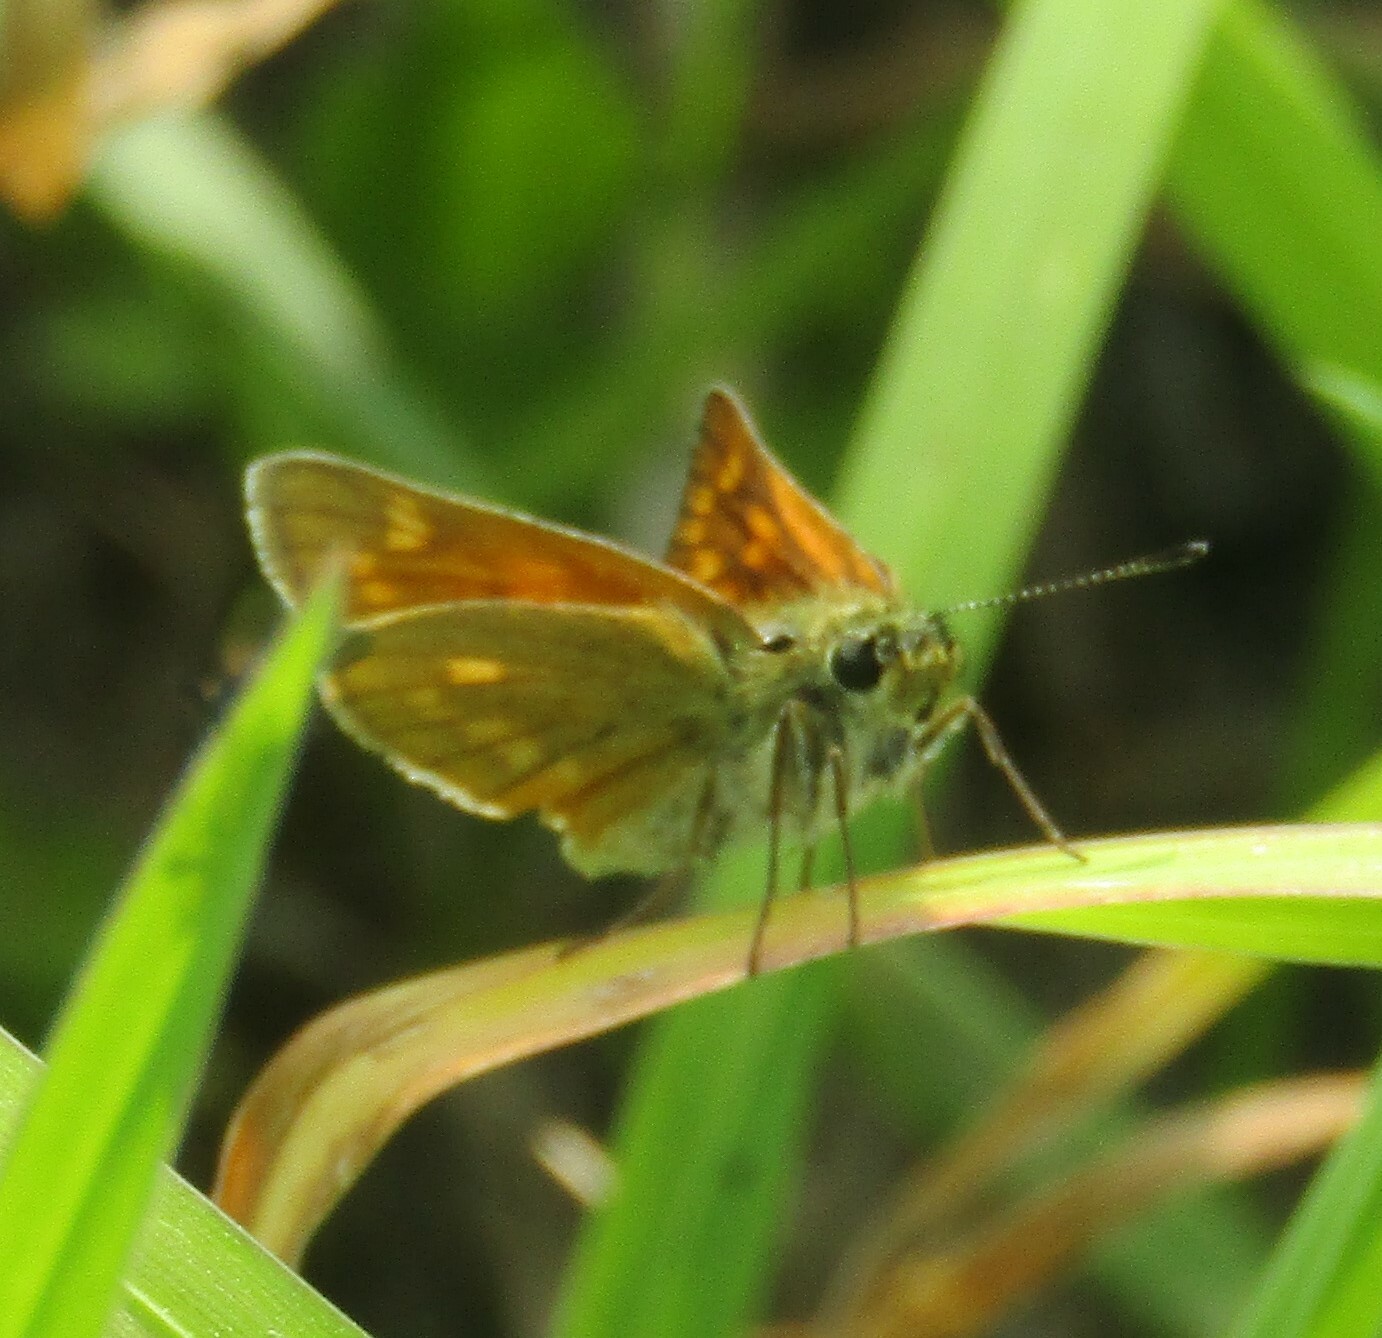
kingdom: Animalia
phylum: Arthropoda
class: Insecta
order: Lepidoptera
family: Hesperiidae
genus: Ochlodes
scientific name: Ochlodes venata
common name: Large skipper
